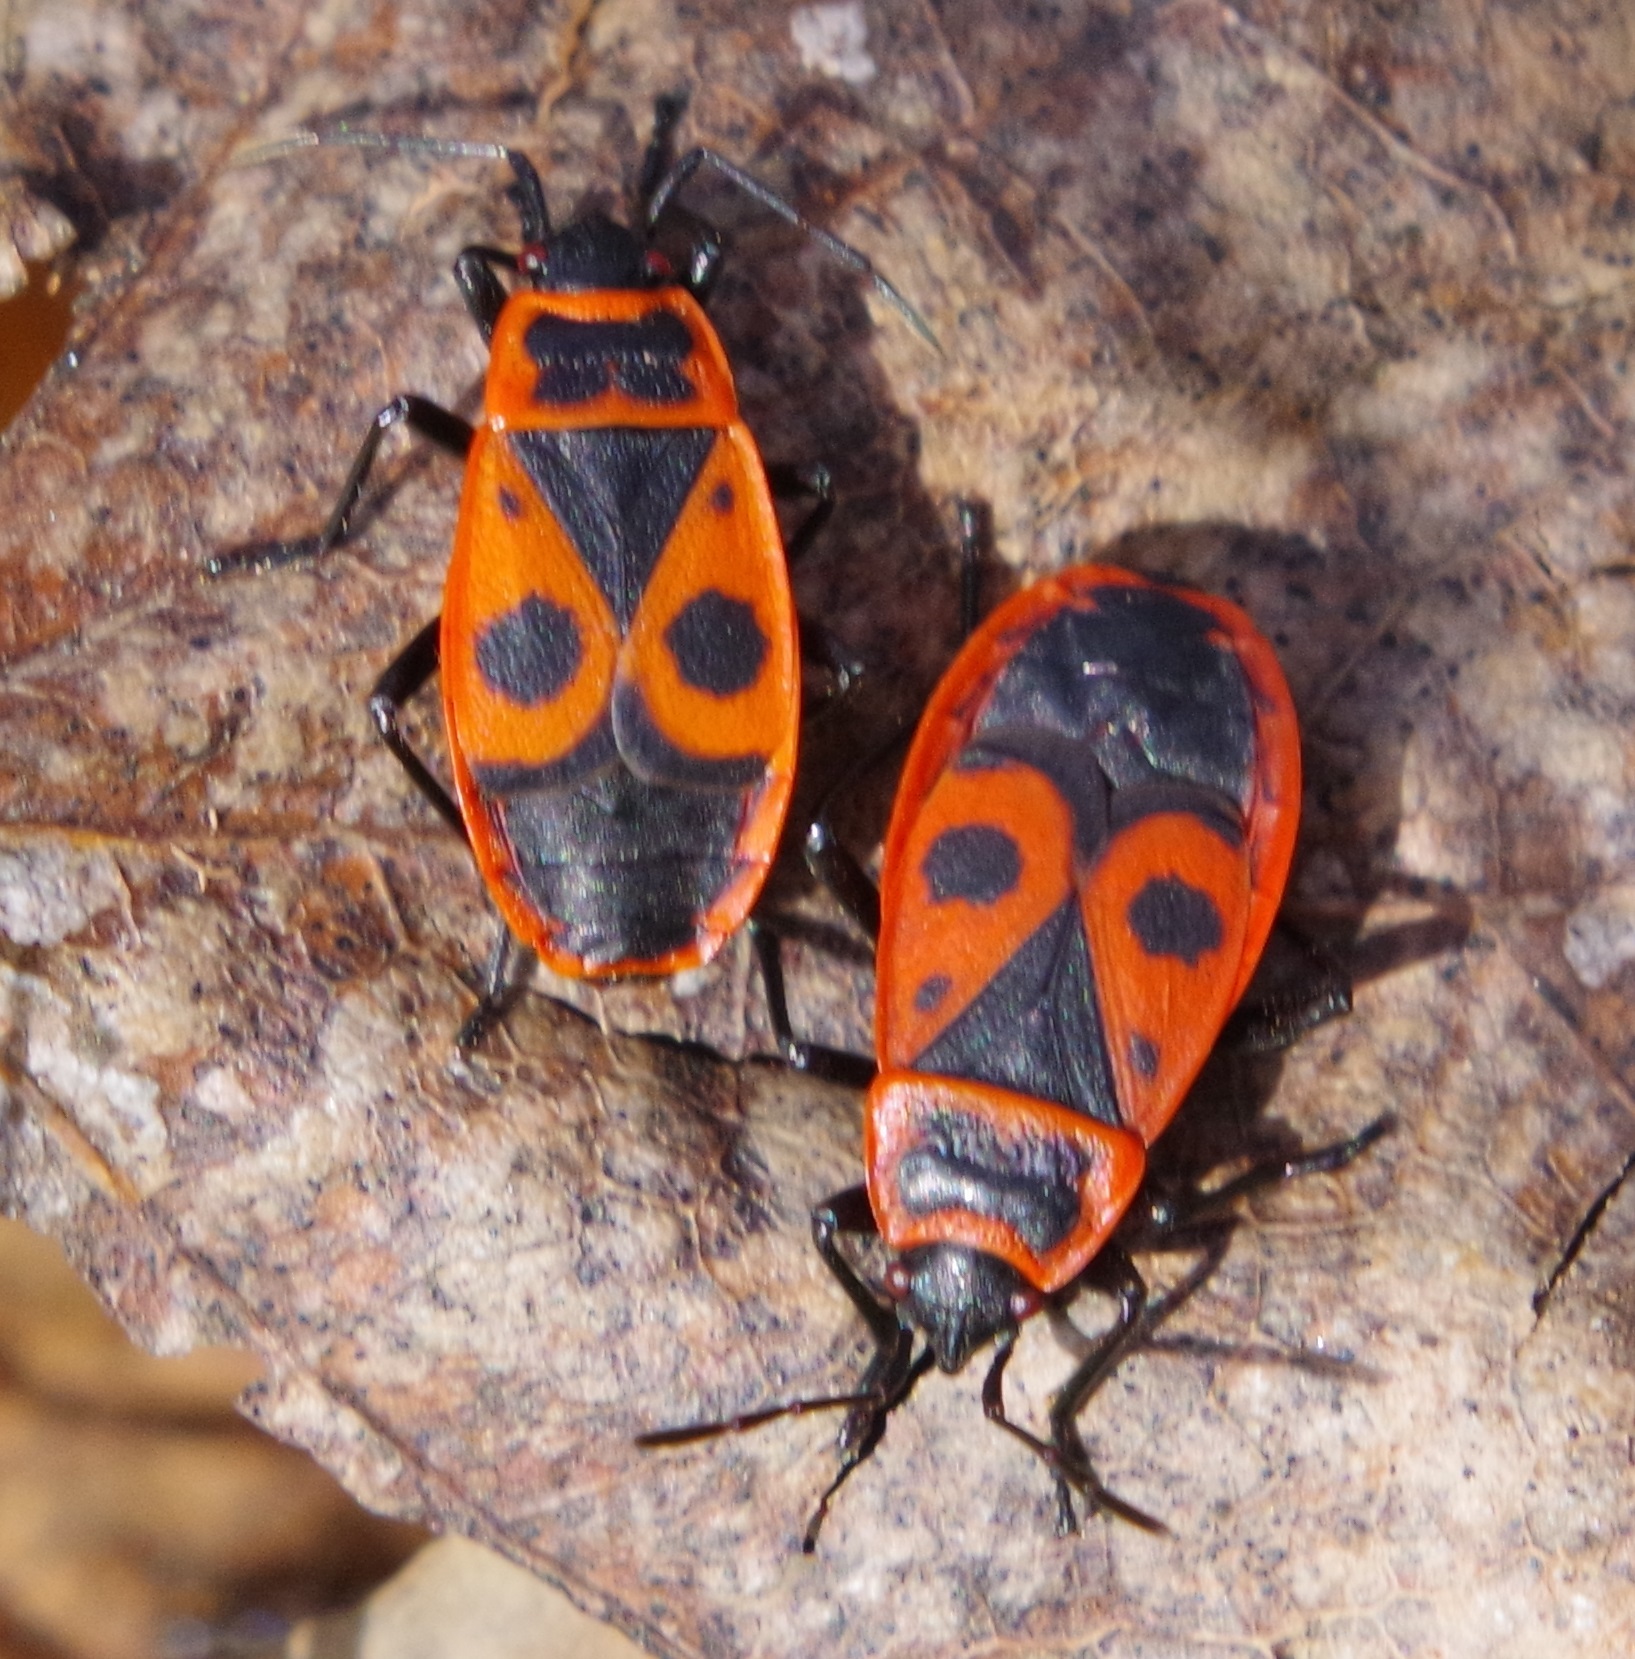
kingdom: Animalia
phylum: Arthropoda
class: Insecta
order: Hemiptera
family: Pyrrhocoridae
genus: Pyrrhocoris
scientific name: Pyrrhocoris apterus
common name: Firebug
